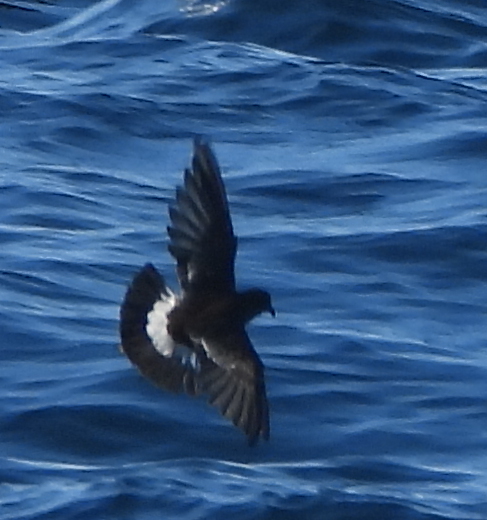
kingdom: Animalia
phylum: Chordata
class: Aves
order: Procellariiformes
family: Hydrobatidae
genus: Oceanites
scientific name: Oceanites oceanicus
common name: Wilson's storm petrel
